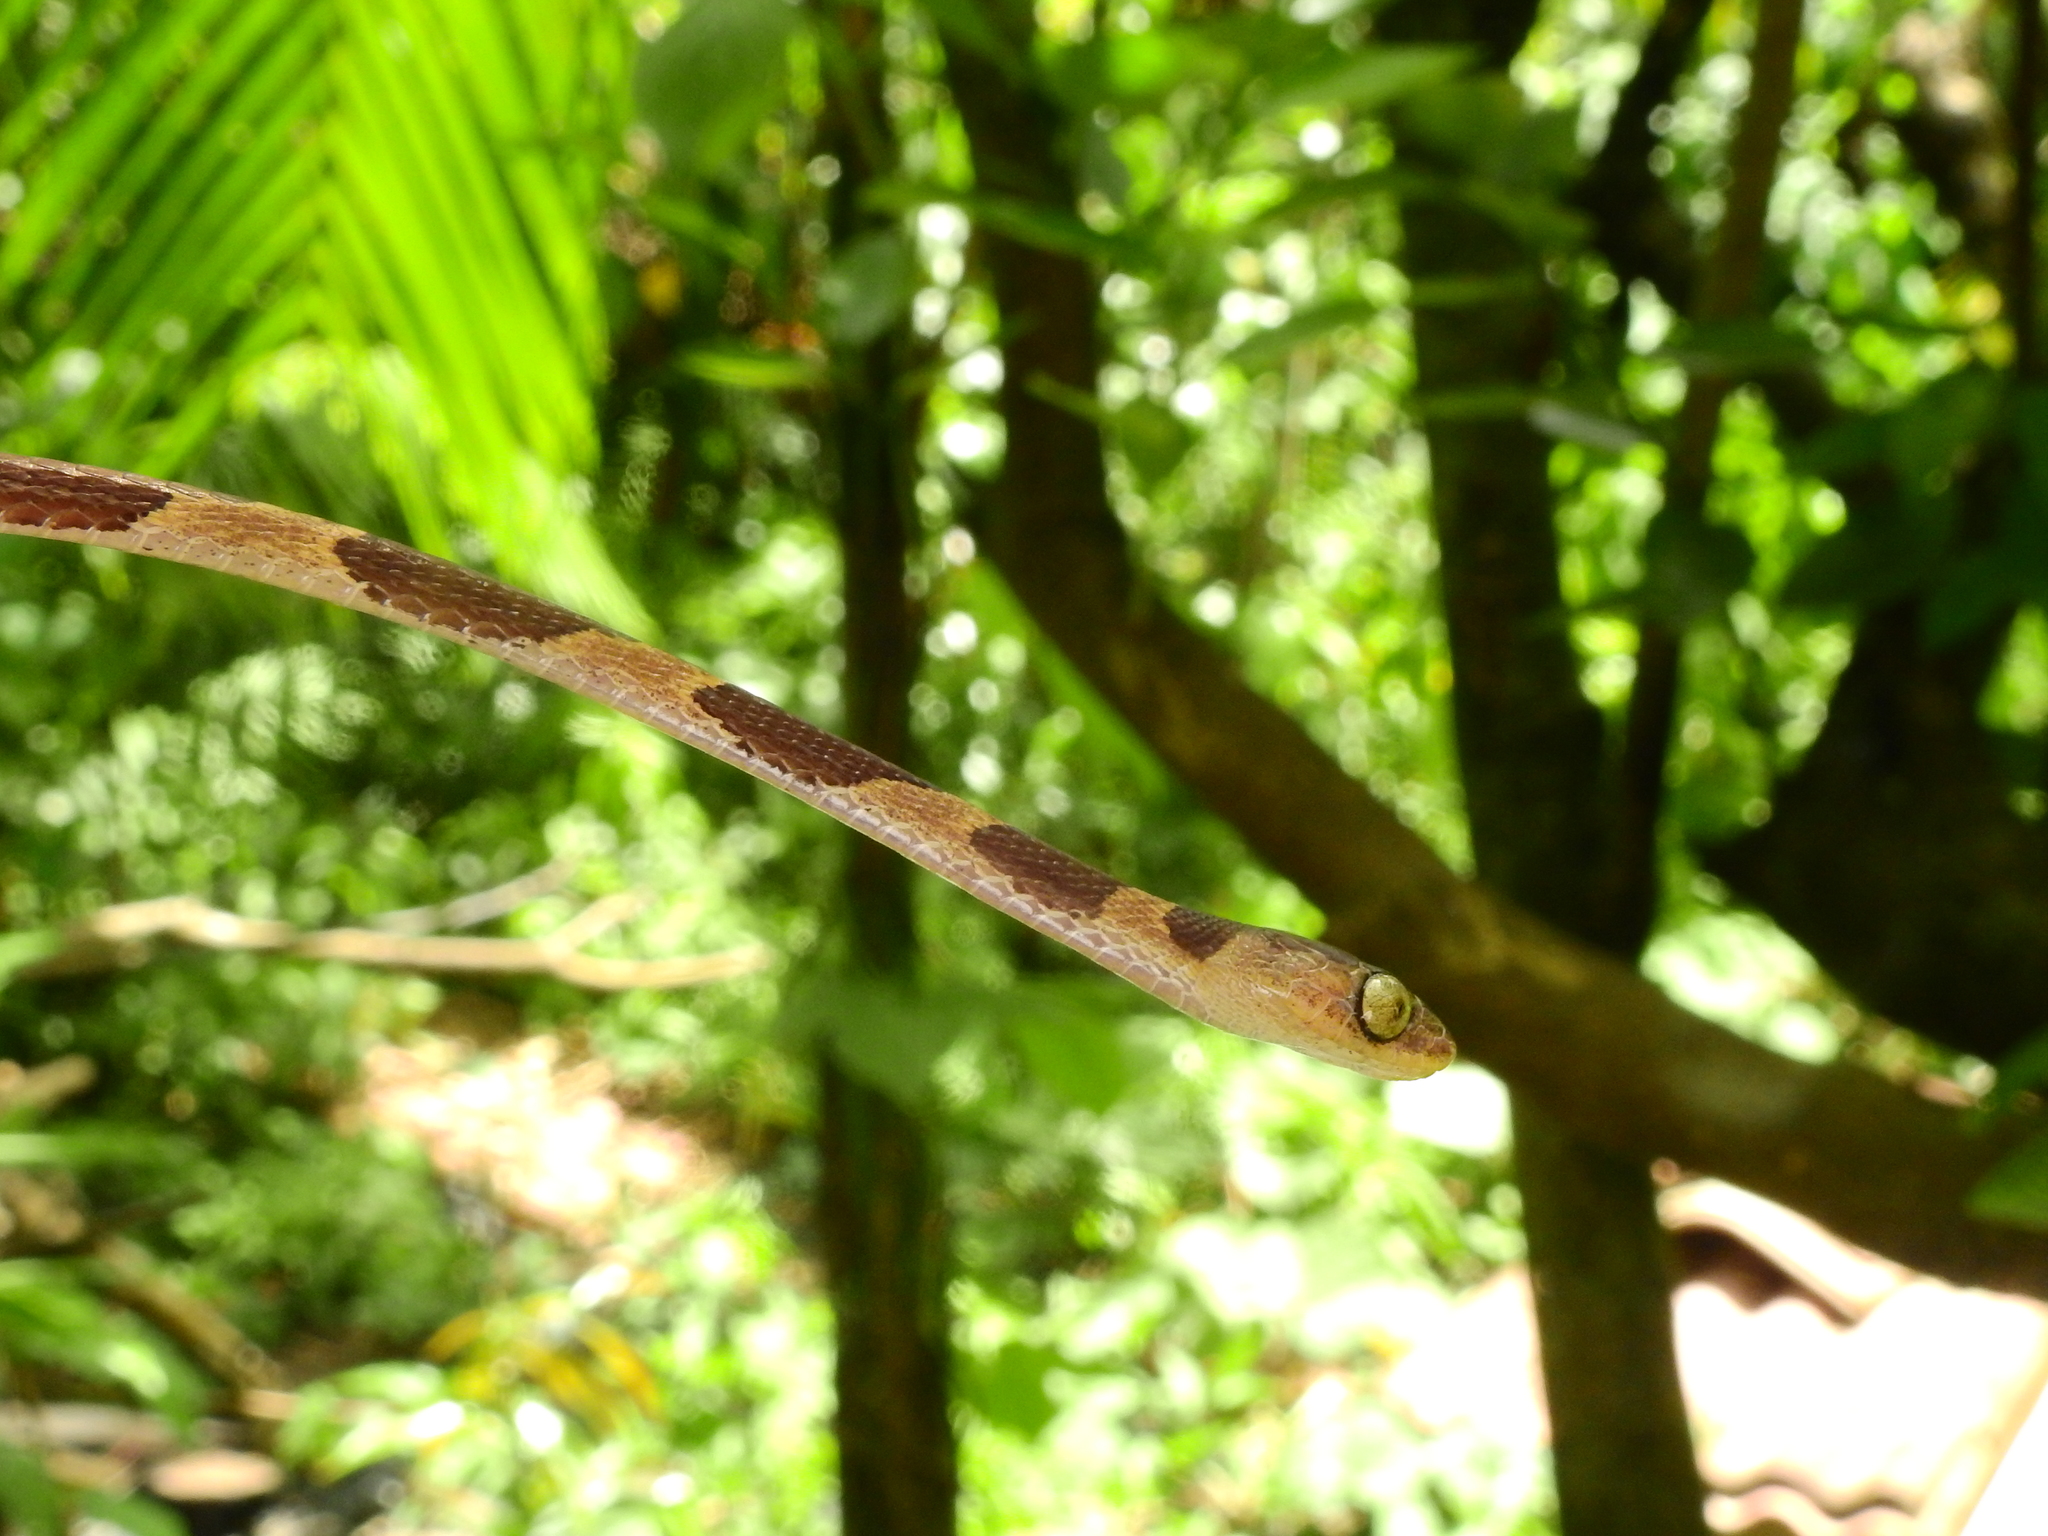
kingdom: Animalia
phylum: Chordata
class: Squamata
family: Colubridae
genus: Imantodes
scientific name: Imantodes cenchoa
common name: Blunthead tree snake
